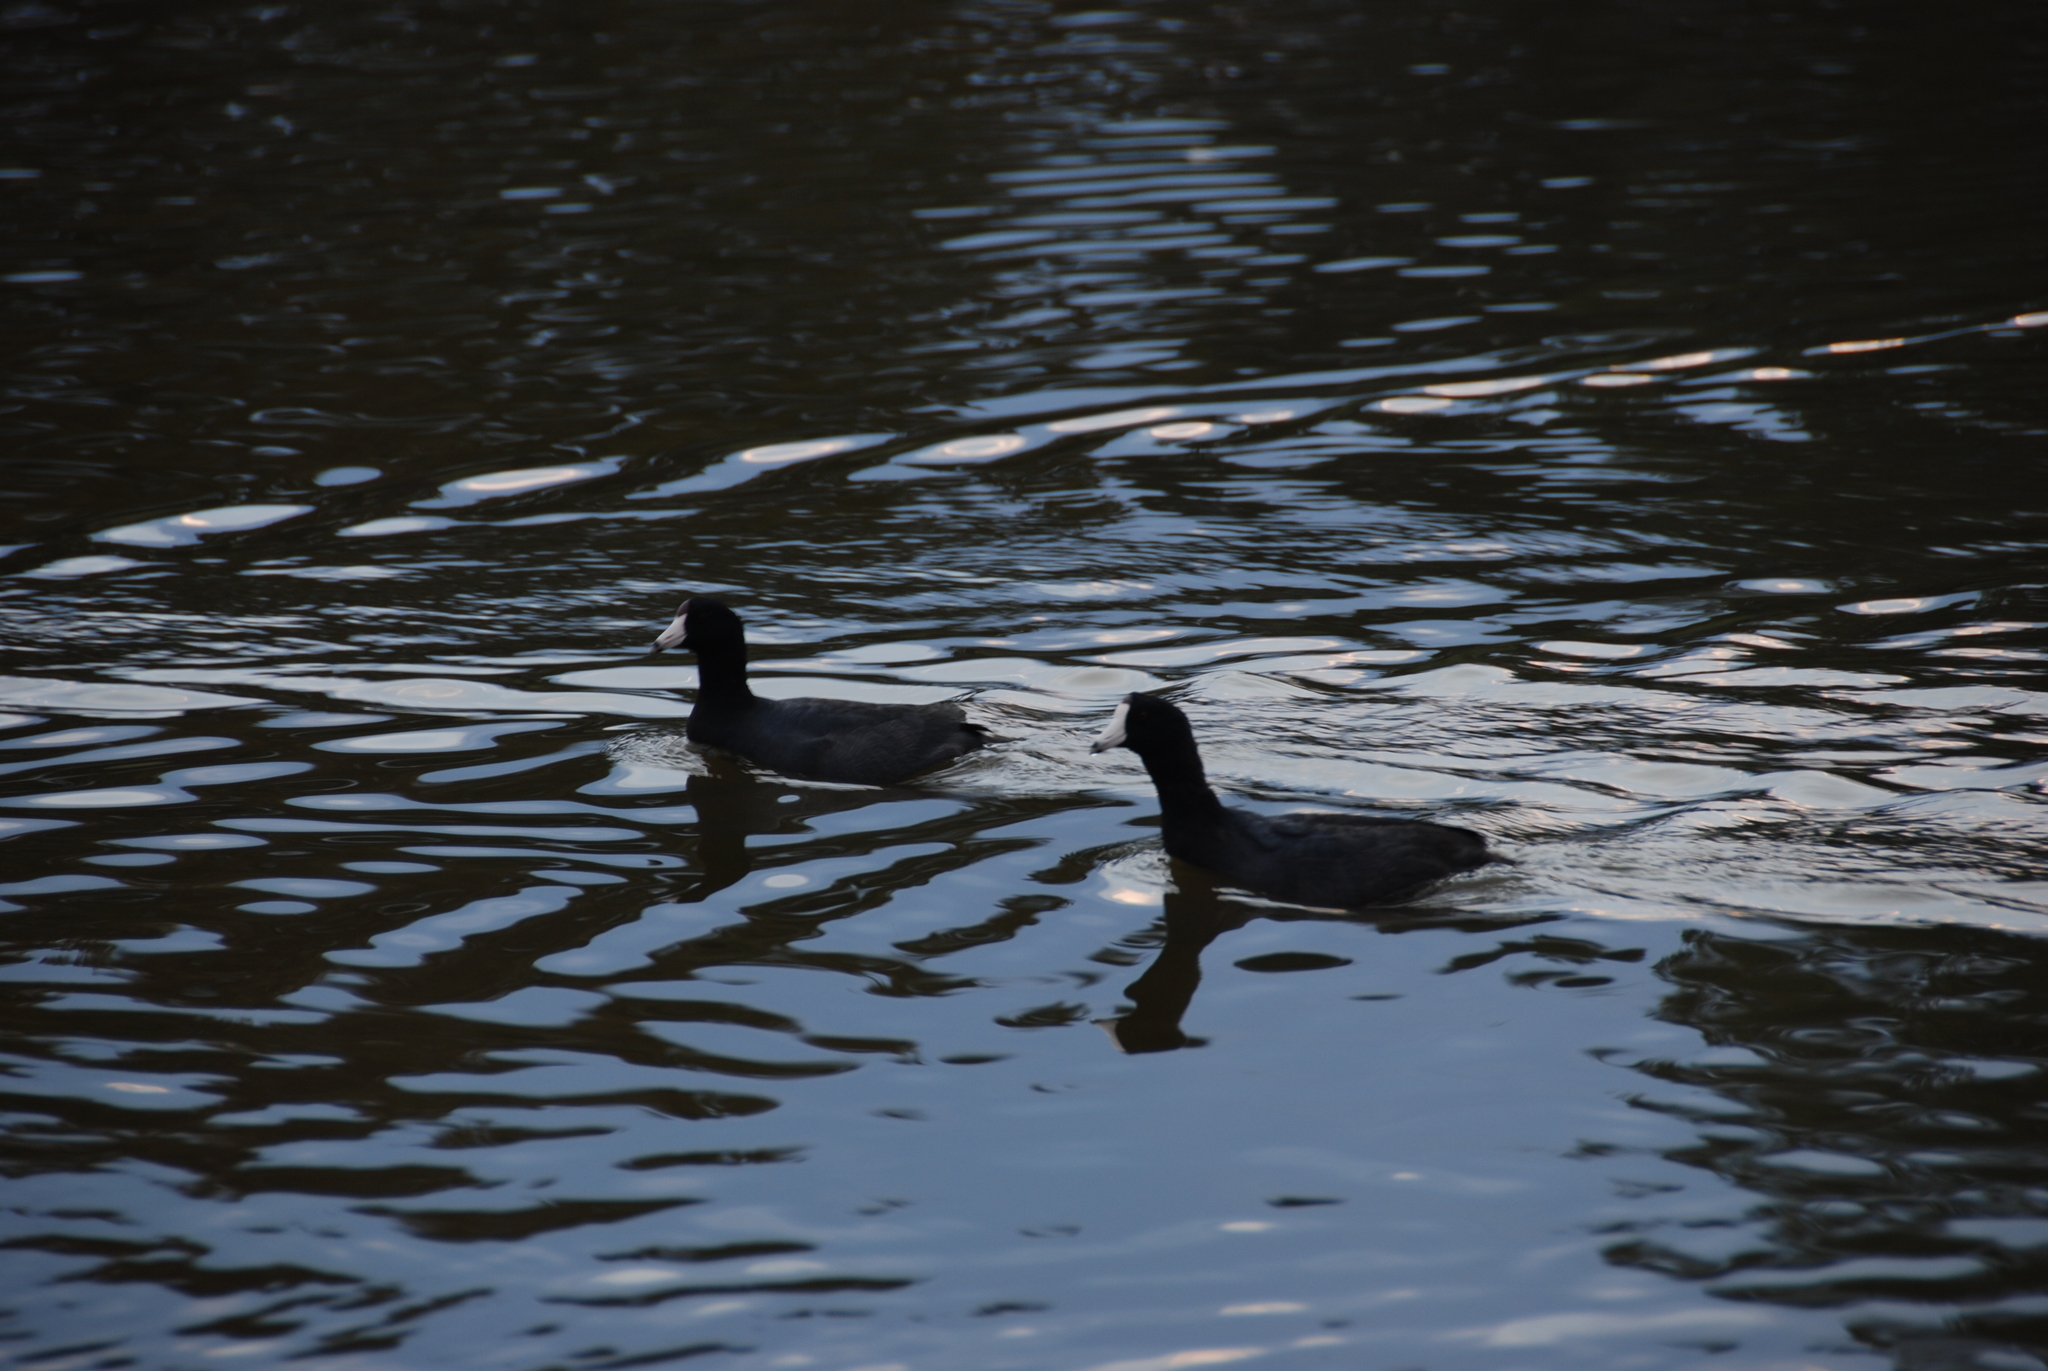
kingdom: Animalia
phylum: Chordata
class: Aves
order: Gruiformes
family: Rallidae
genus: Fulica
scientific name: Fulica americana
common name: American coot
